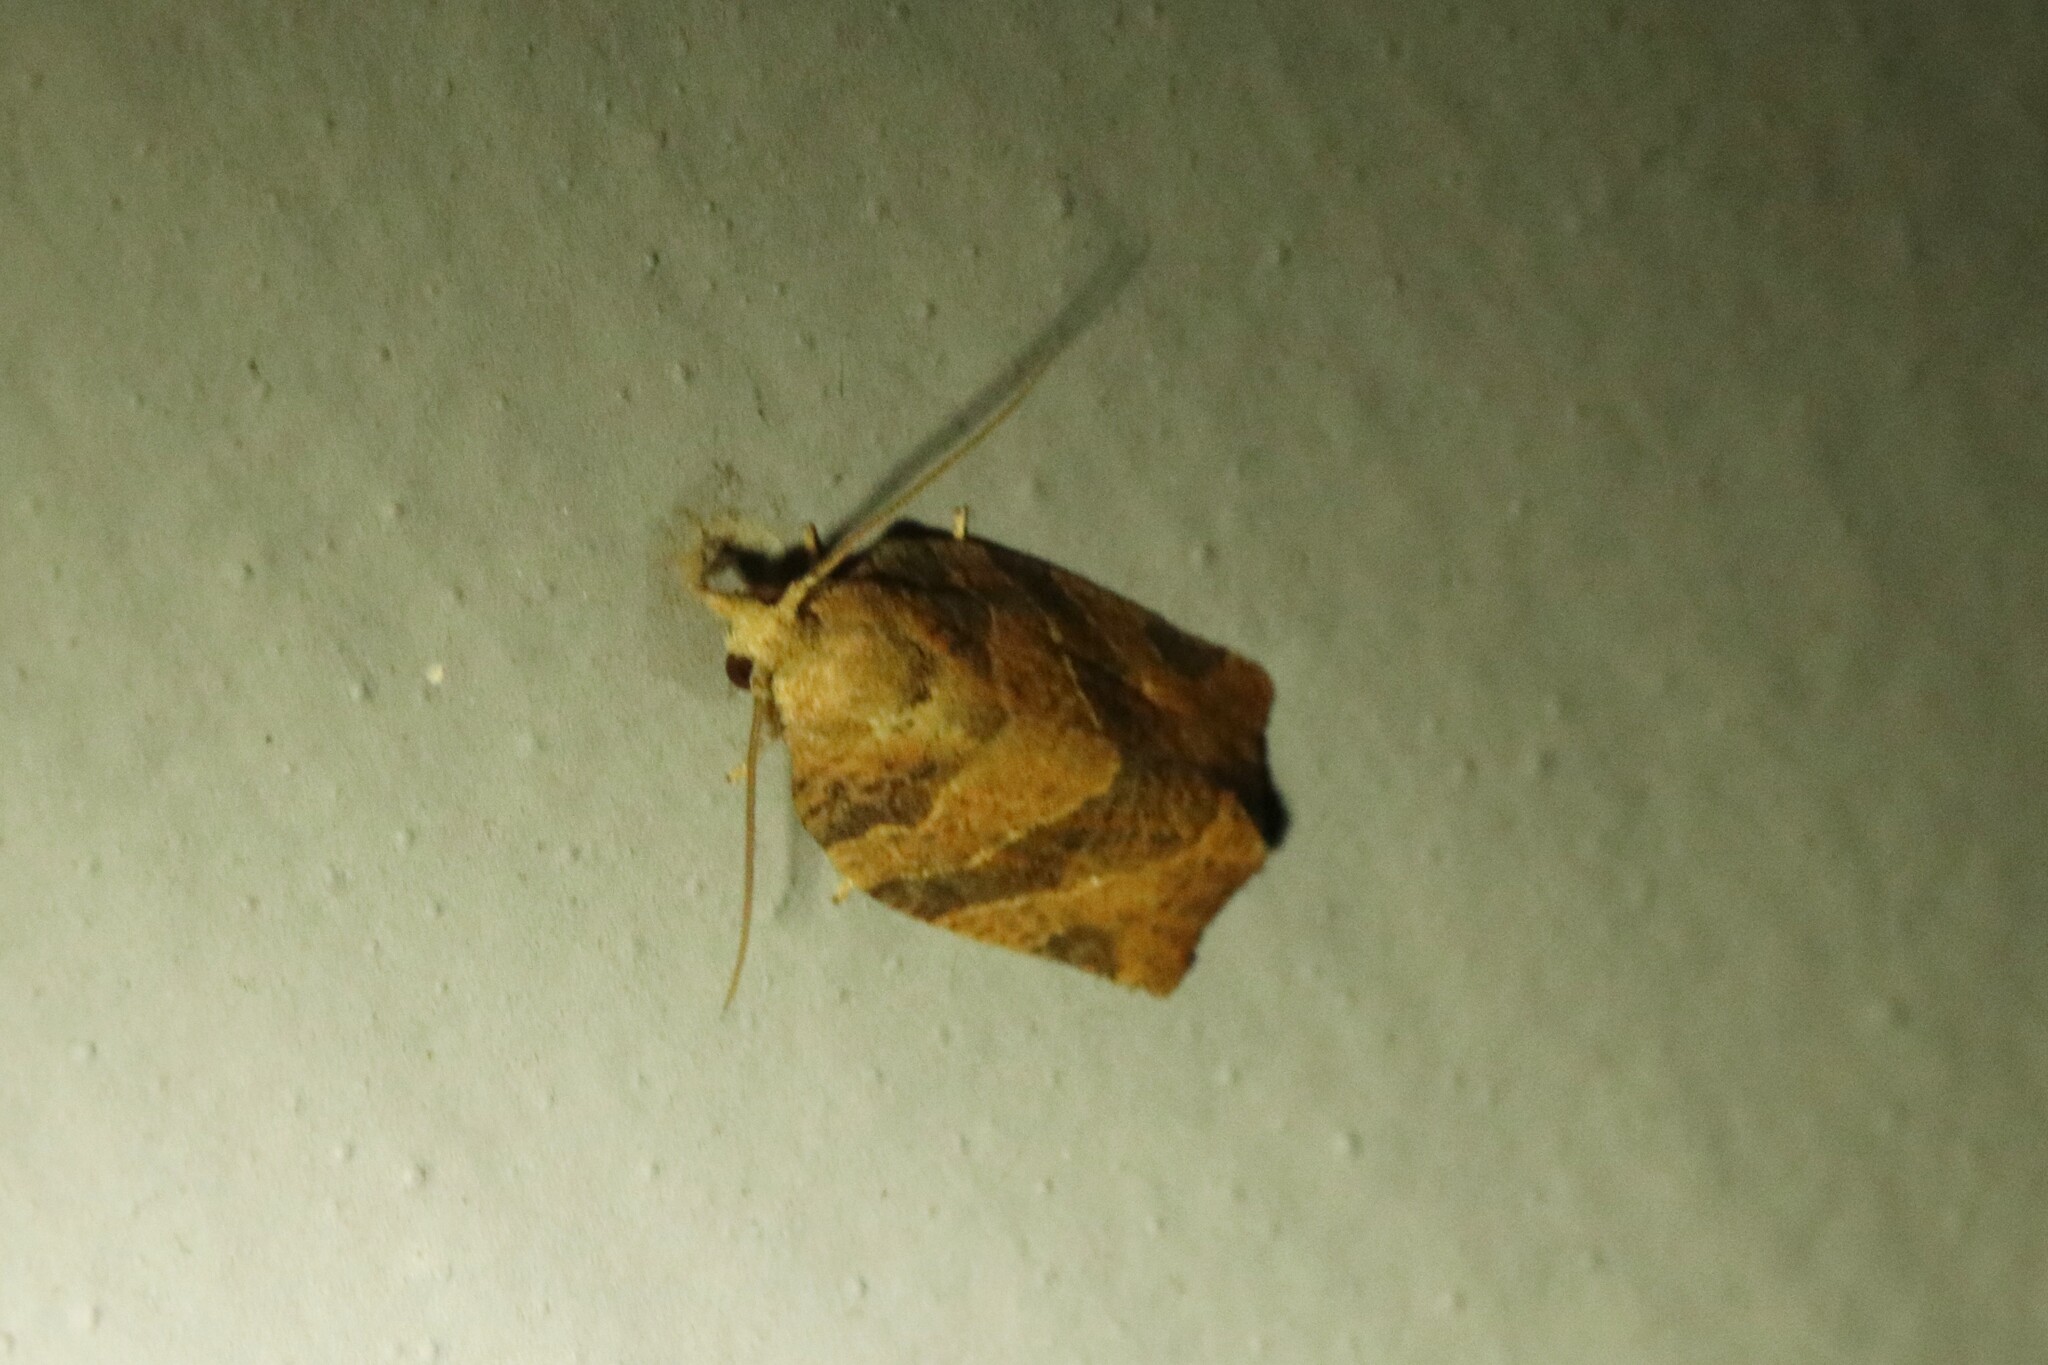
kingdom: Animalia
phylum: Arthropoda
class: Insecta
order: Lepidoptera
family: Tortricidae
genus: Pandemis
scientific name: Pandemis limitata
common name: Three-lined leafroller moth
